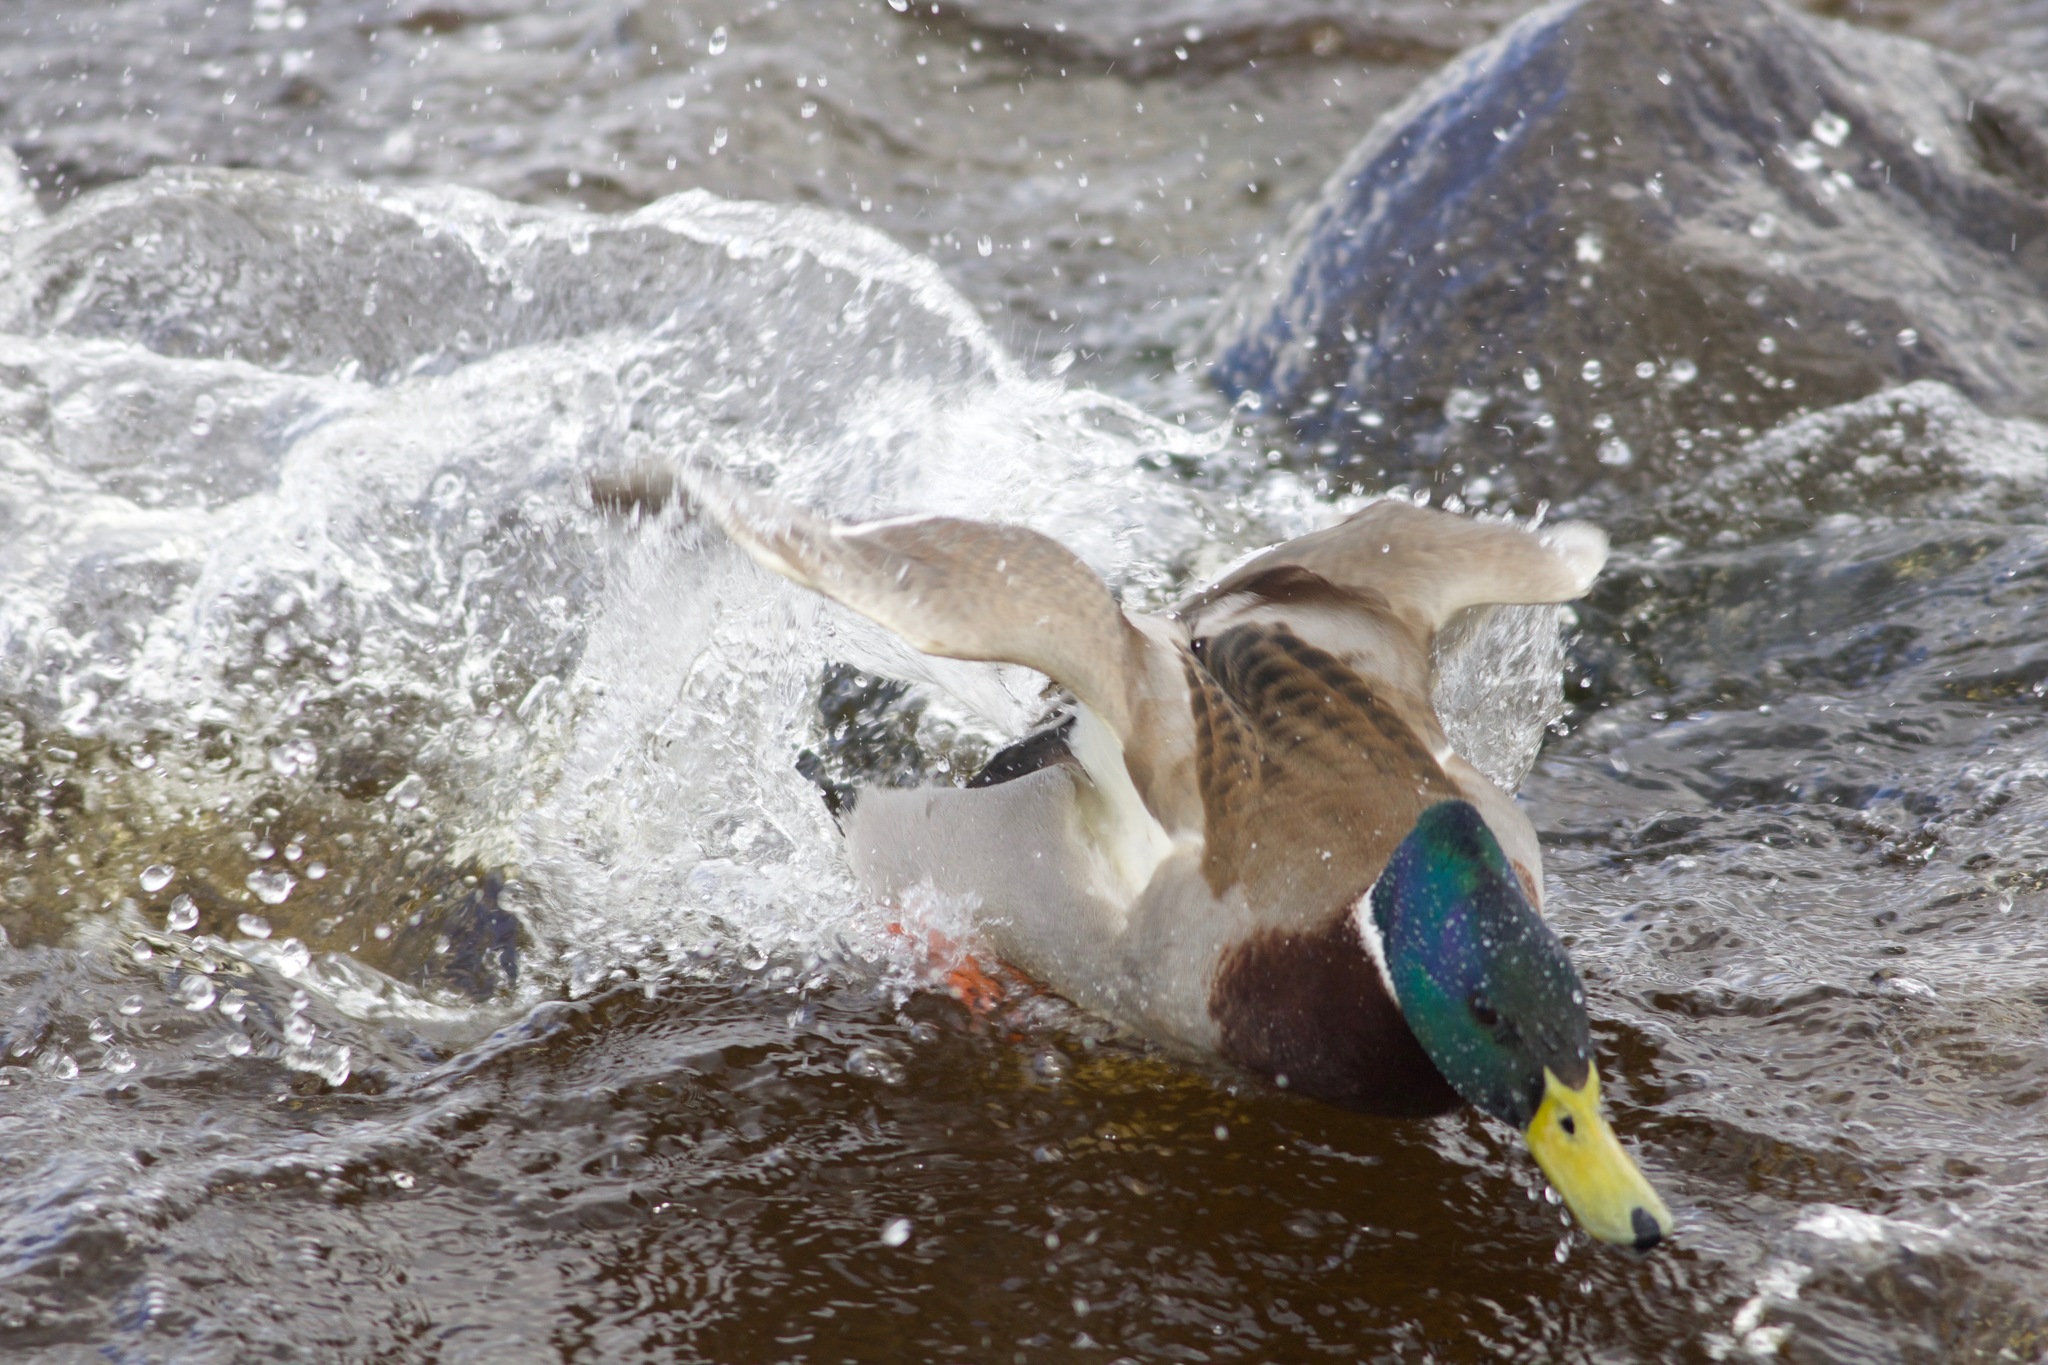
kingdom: Animalia
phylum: Chordata
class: Aves
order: Anseriformes
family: Anatidae
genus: Anas
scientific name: Anas platyrhynchos
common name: Mallard
